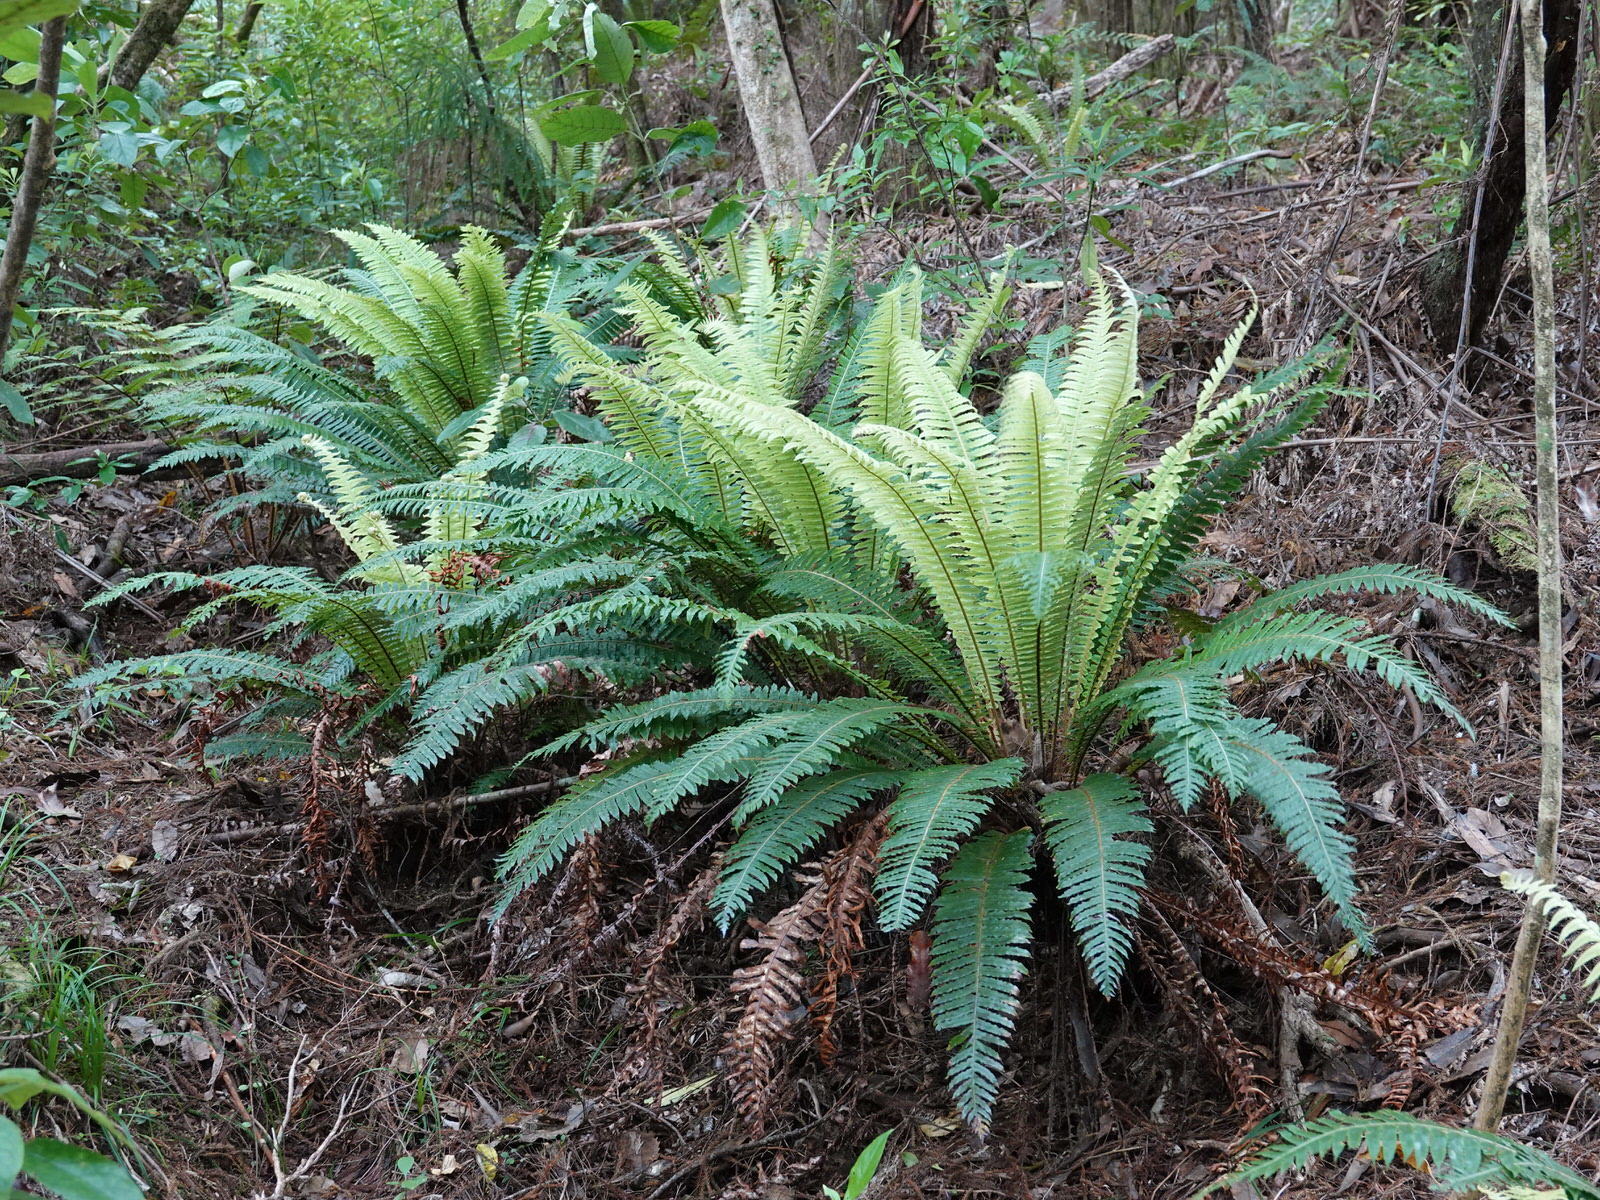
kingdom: Plantae
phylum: Tracheophyta
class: Polypodiopsida
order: Polypodiales
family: Blechnaceae
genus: Lomaria
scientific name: Lomaria discolor
